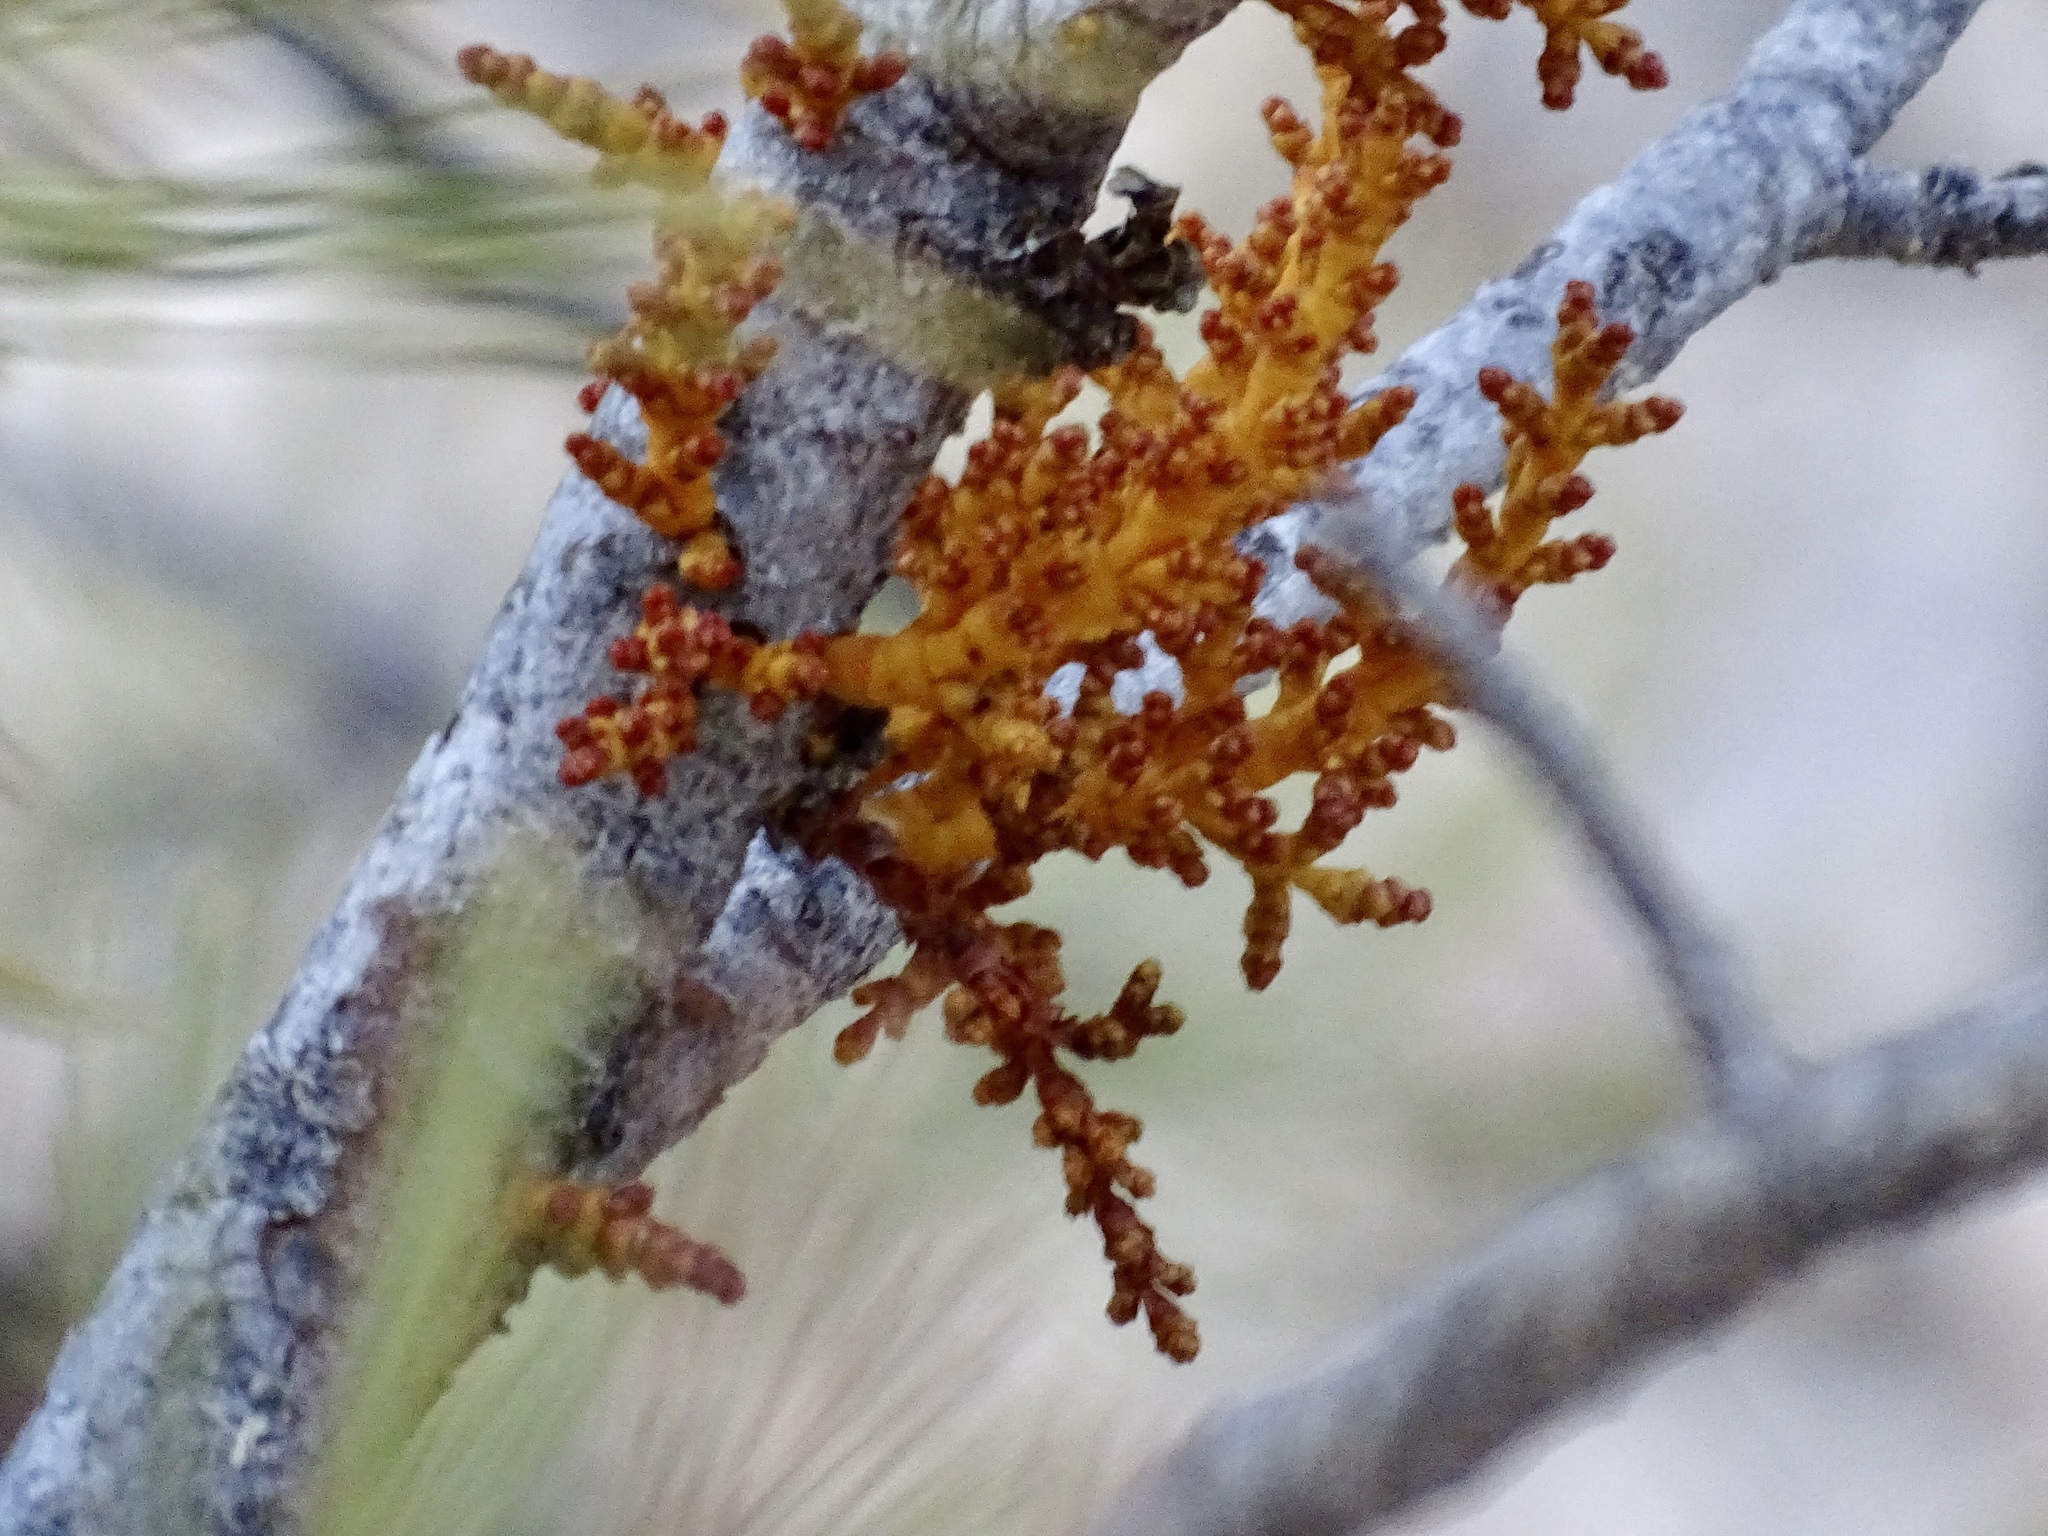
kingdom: Plantae
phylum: Tracheophyta
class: Magnoliopsida
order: Santalales
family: Viscaceae
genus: Arceuthobium
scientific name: Arceuthobium vaginatum
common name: Southwestern dwarf-mistletoe
